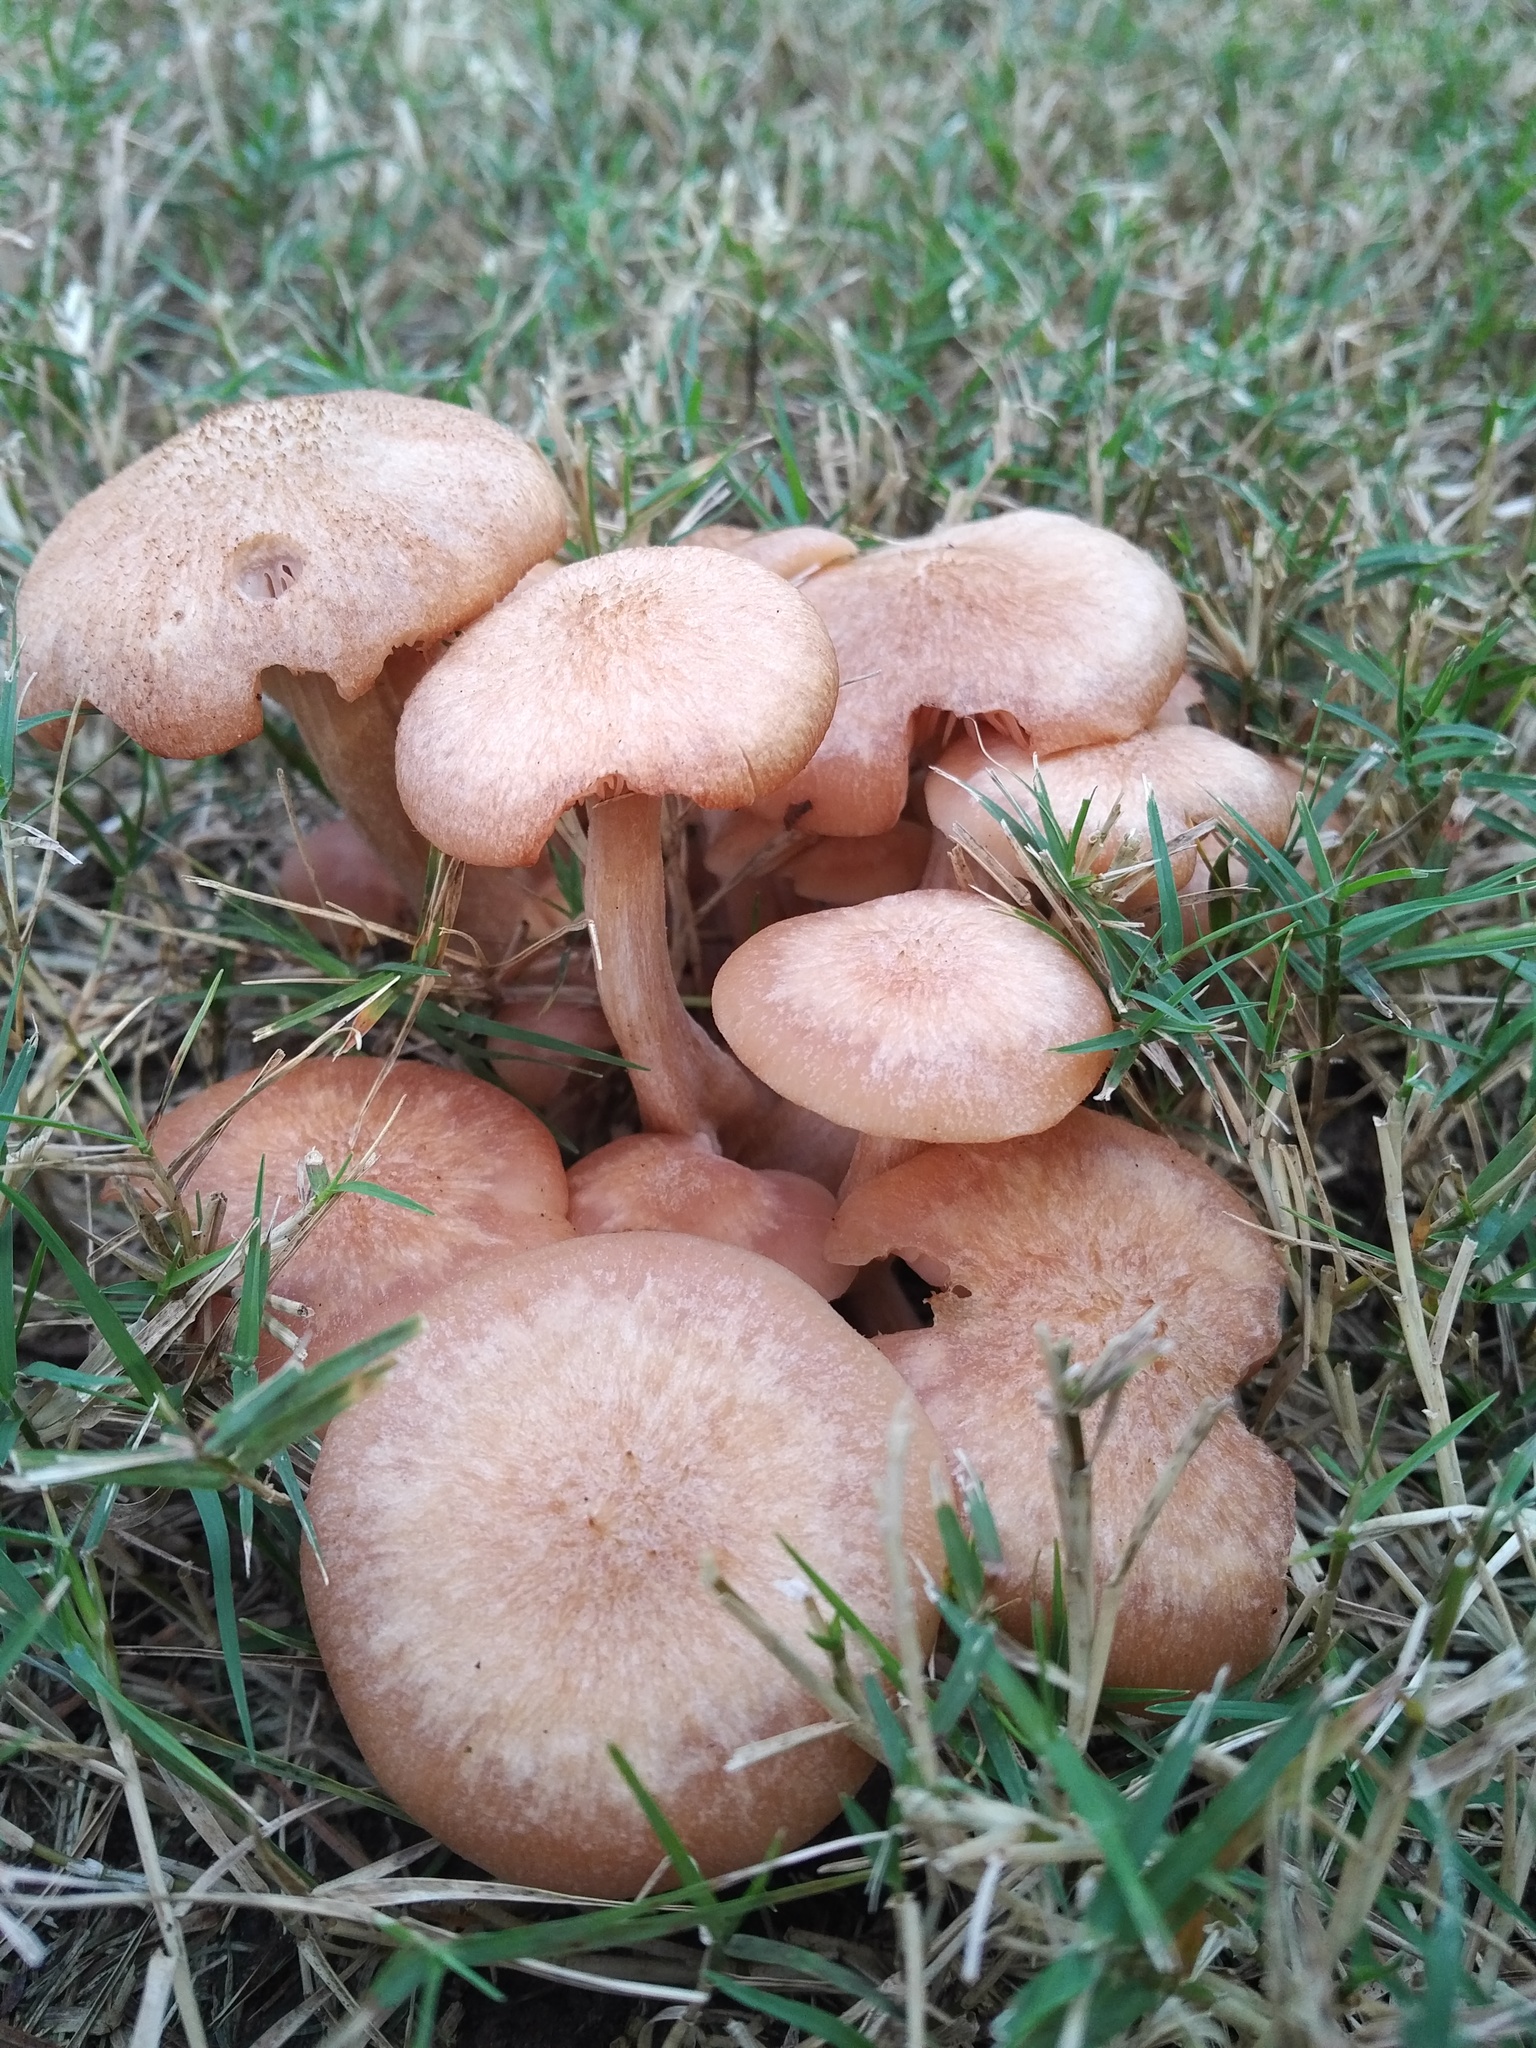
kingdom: Fungi
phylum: Basidiomycota
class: Agaricomycetes
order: Agaricales
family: Physalacriaceae
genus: Desarmillaria
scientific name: Desarmillaria caespitosa
